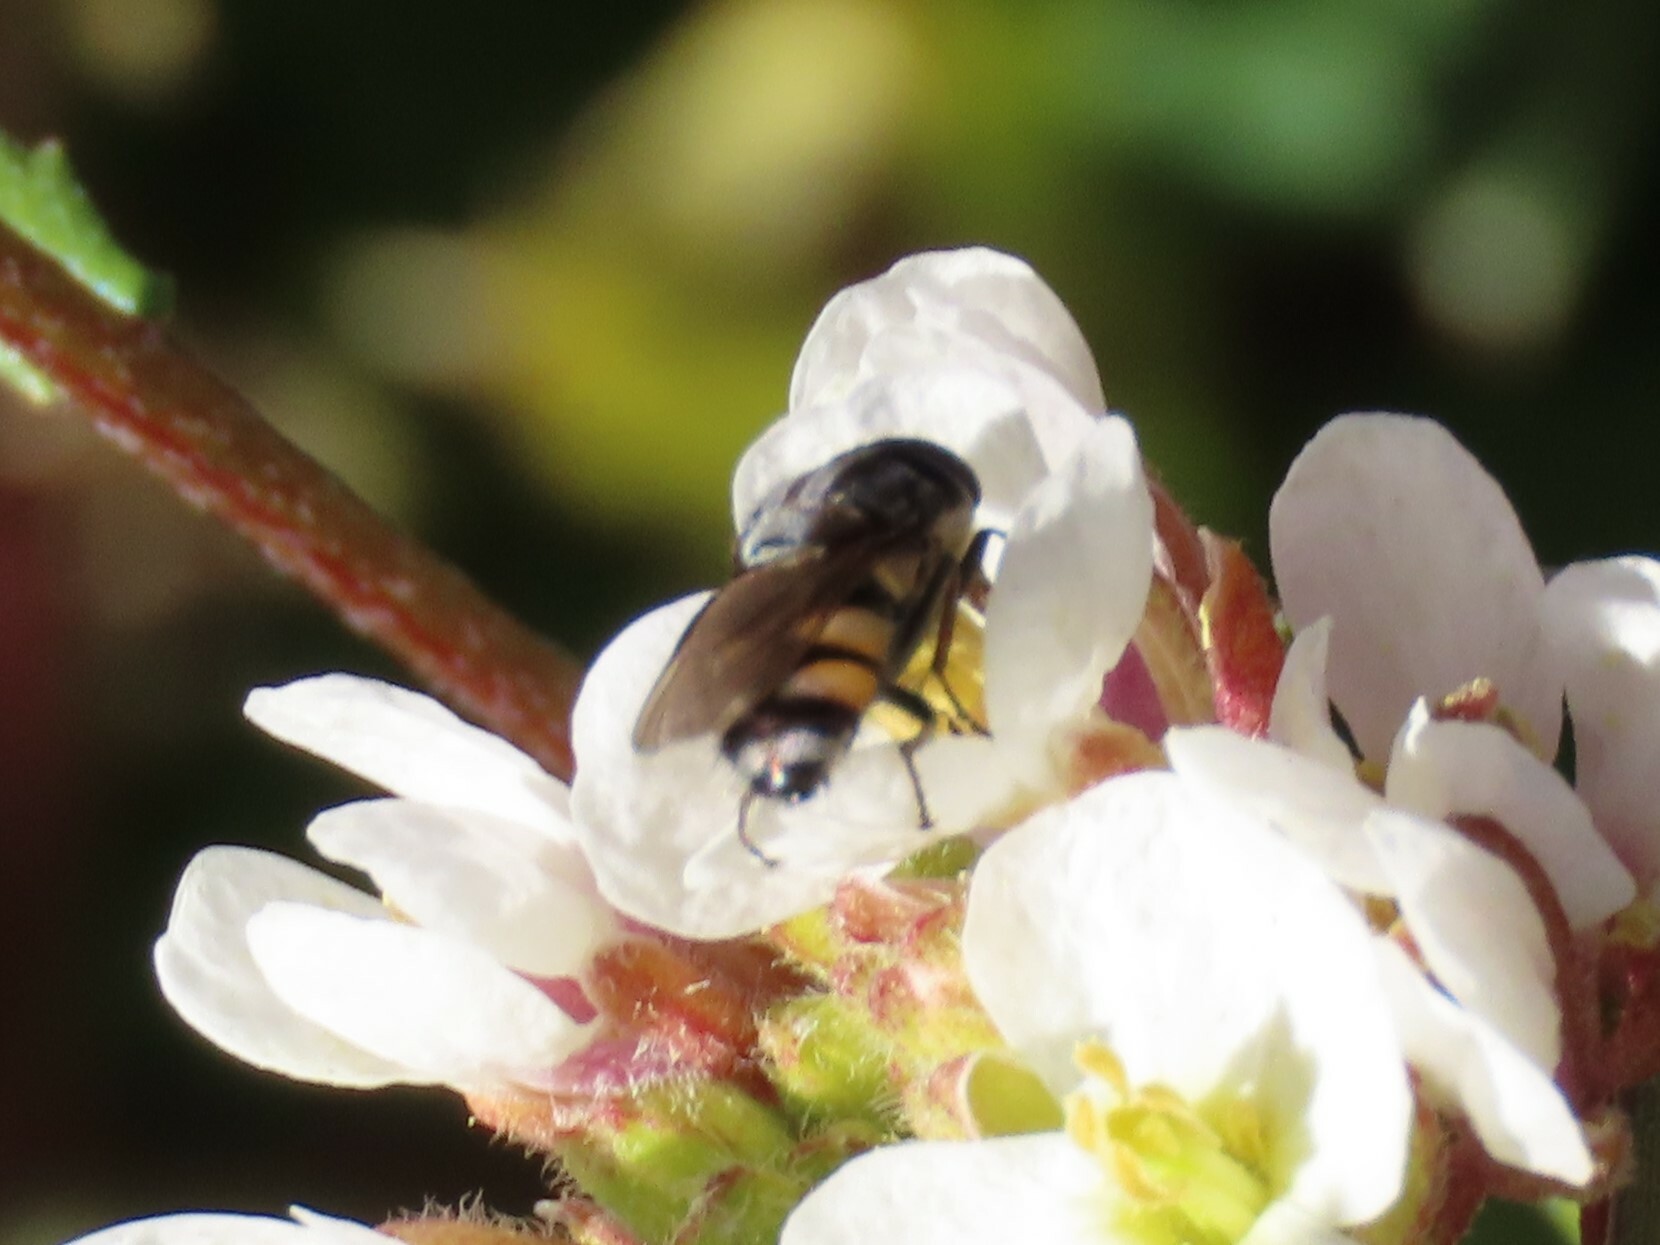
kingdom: Animalia
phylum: Arthropoda
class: Insecta
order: Diptera
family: Calliphoridae
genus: Stomorhina
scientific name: Stomorhina lunata
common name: Locust blowfly
